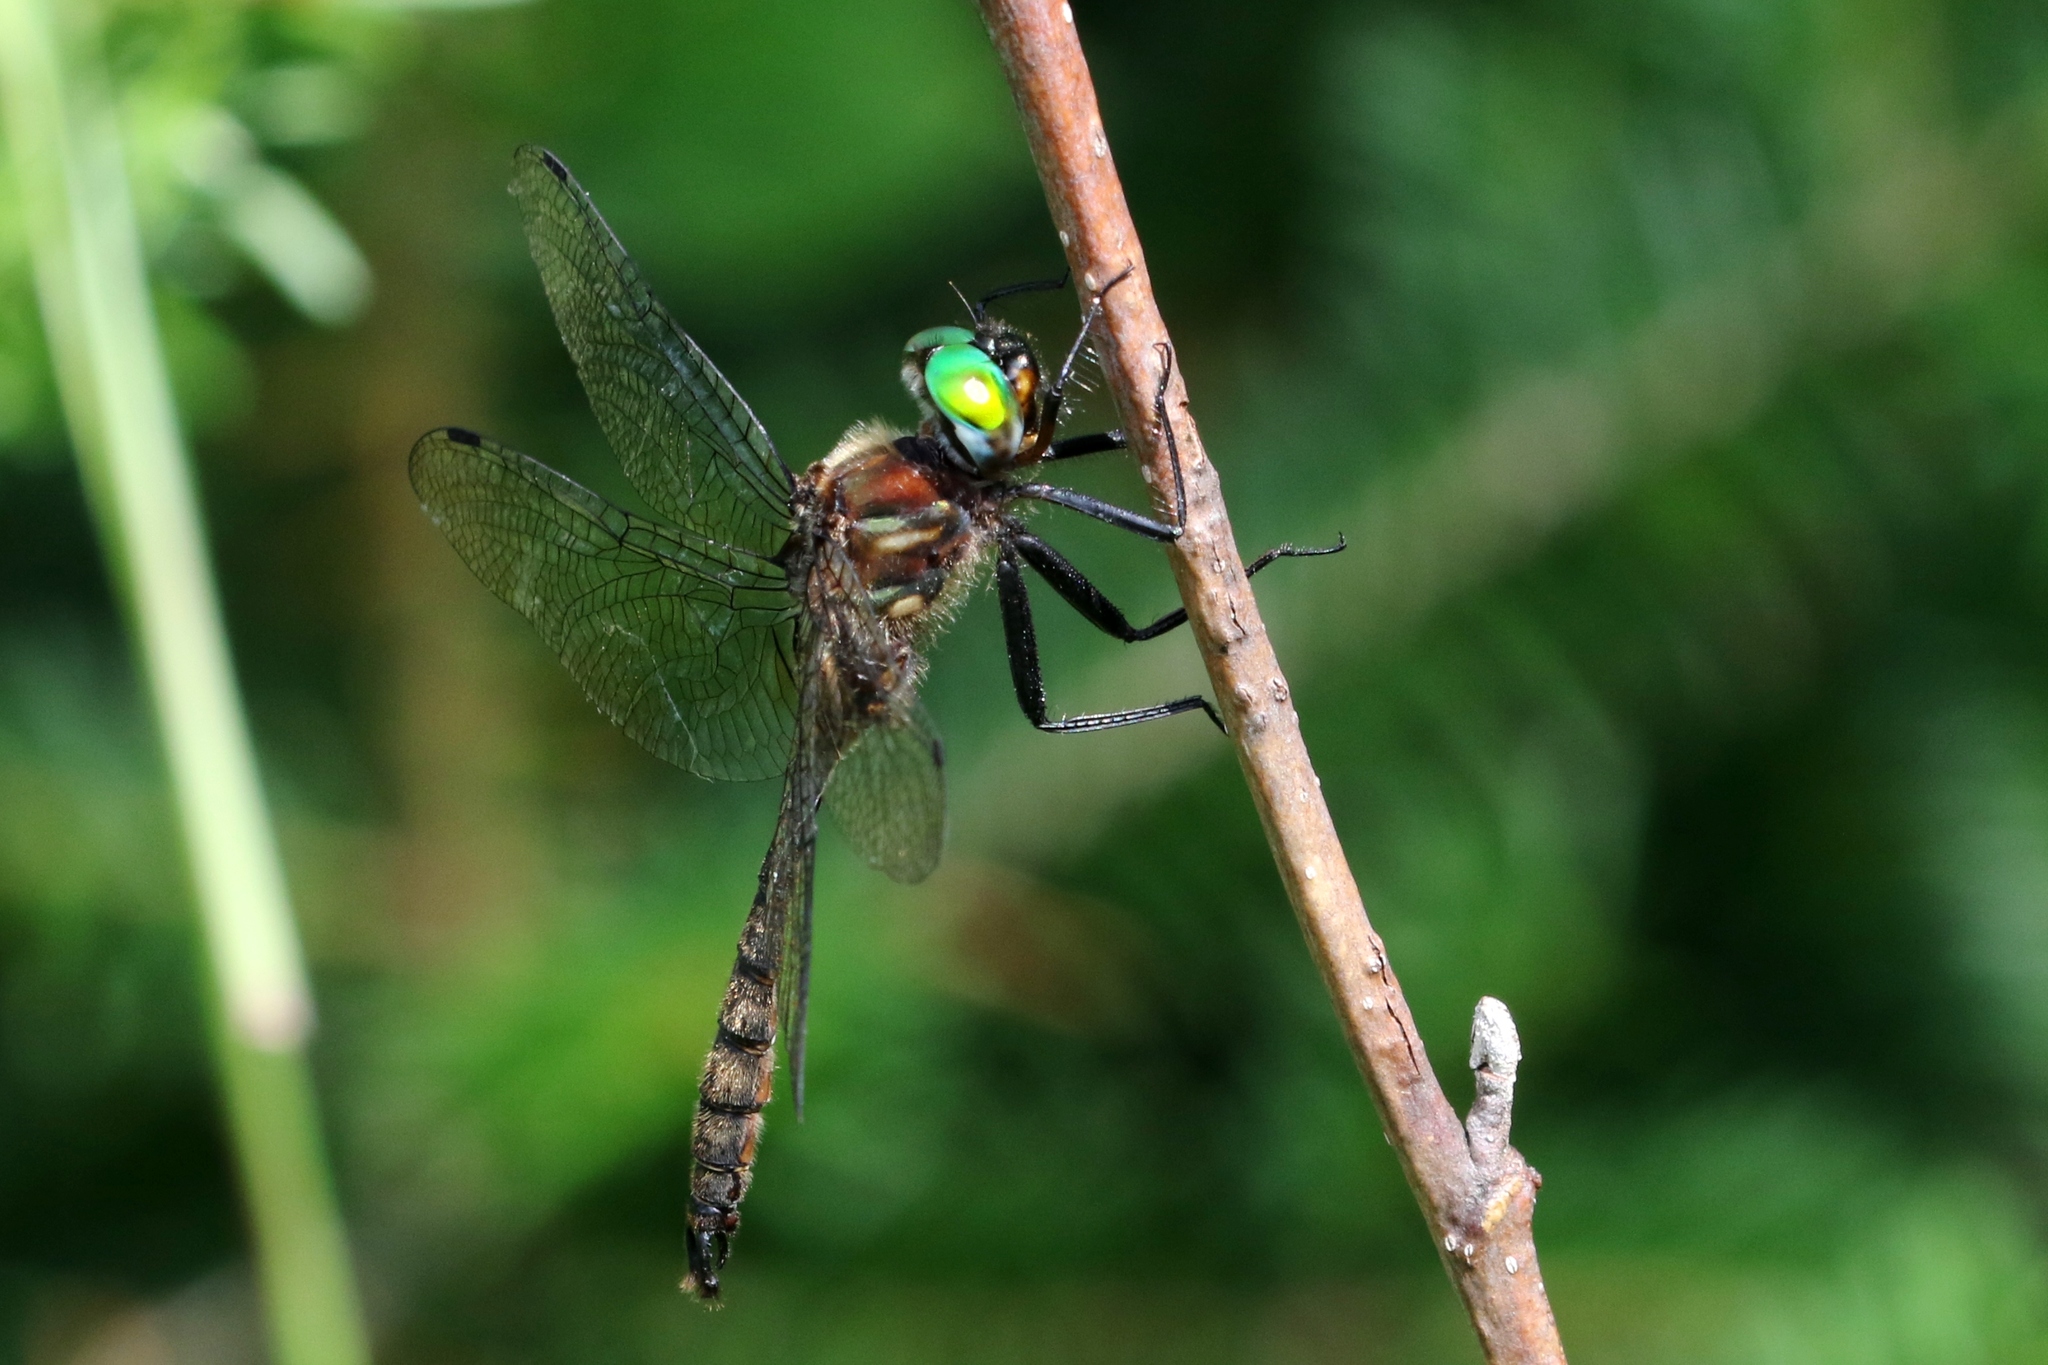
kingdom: Animalia
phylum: Arthropoda
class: Insecta
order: Odonata
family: Corduliidae
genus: Somatochlora
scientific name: Somatochlora walshii
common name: Brush-tipped emerald
